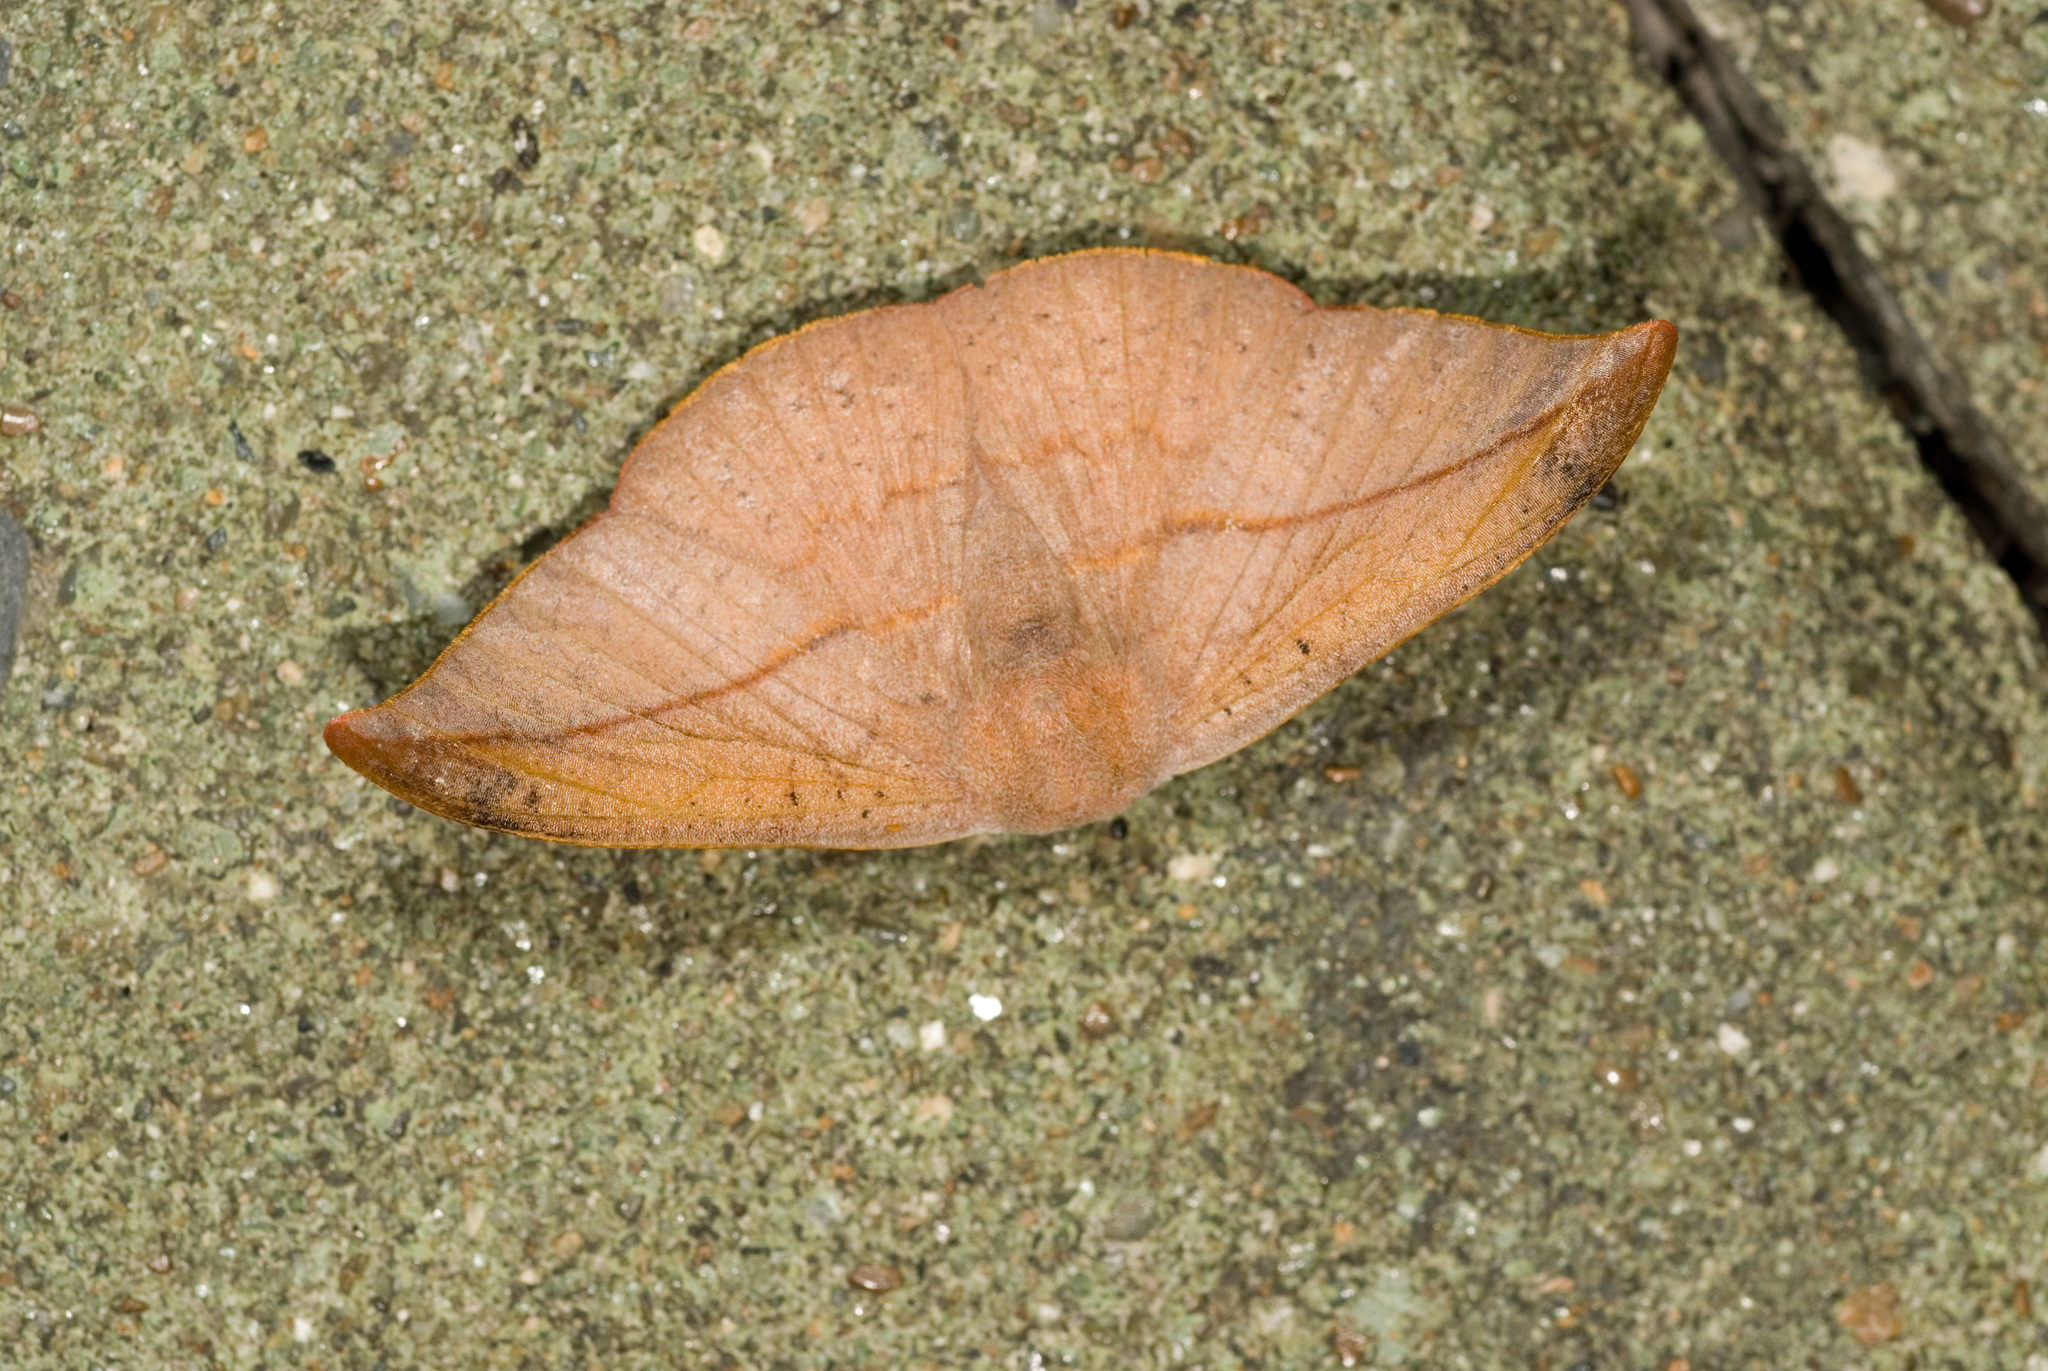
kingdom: Animalia
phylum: Arthropoda
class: Insecta
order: Lepidoptera
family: Drepanidae
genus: Oreta
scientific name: Oreta insignis
